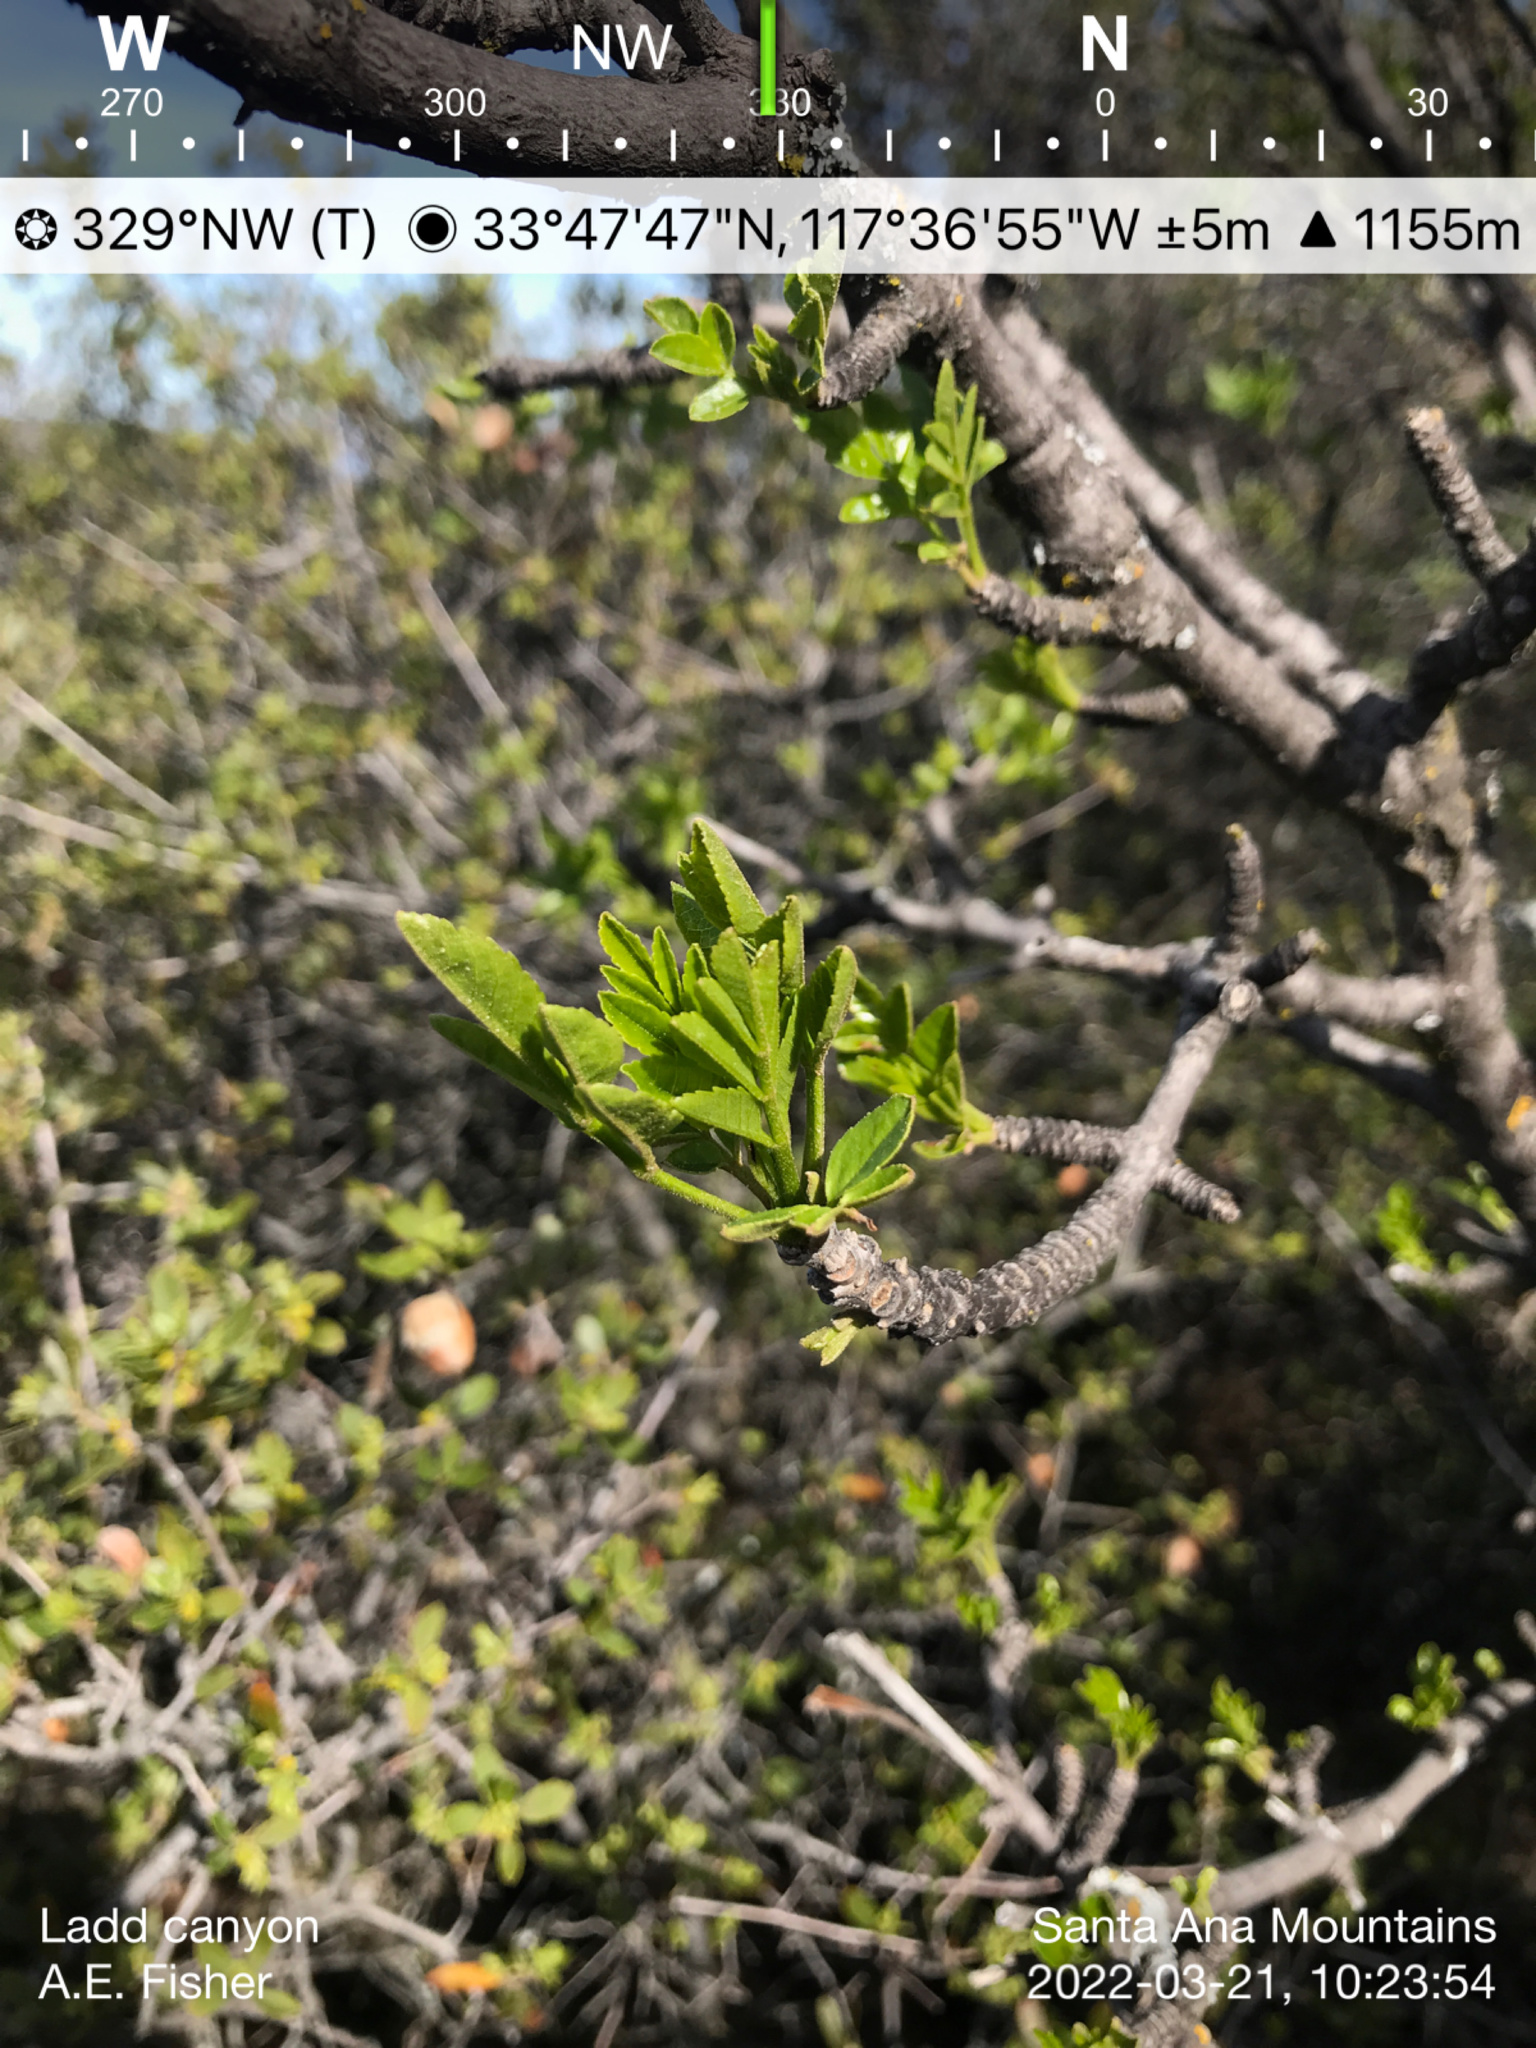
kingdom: Plantae
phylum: Tracheophyta
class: Magnoliopsida
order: Lamiales
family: Oleaceae
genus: Fraxinus
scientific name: Fraxinus dipetala
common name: California ash
